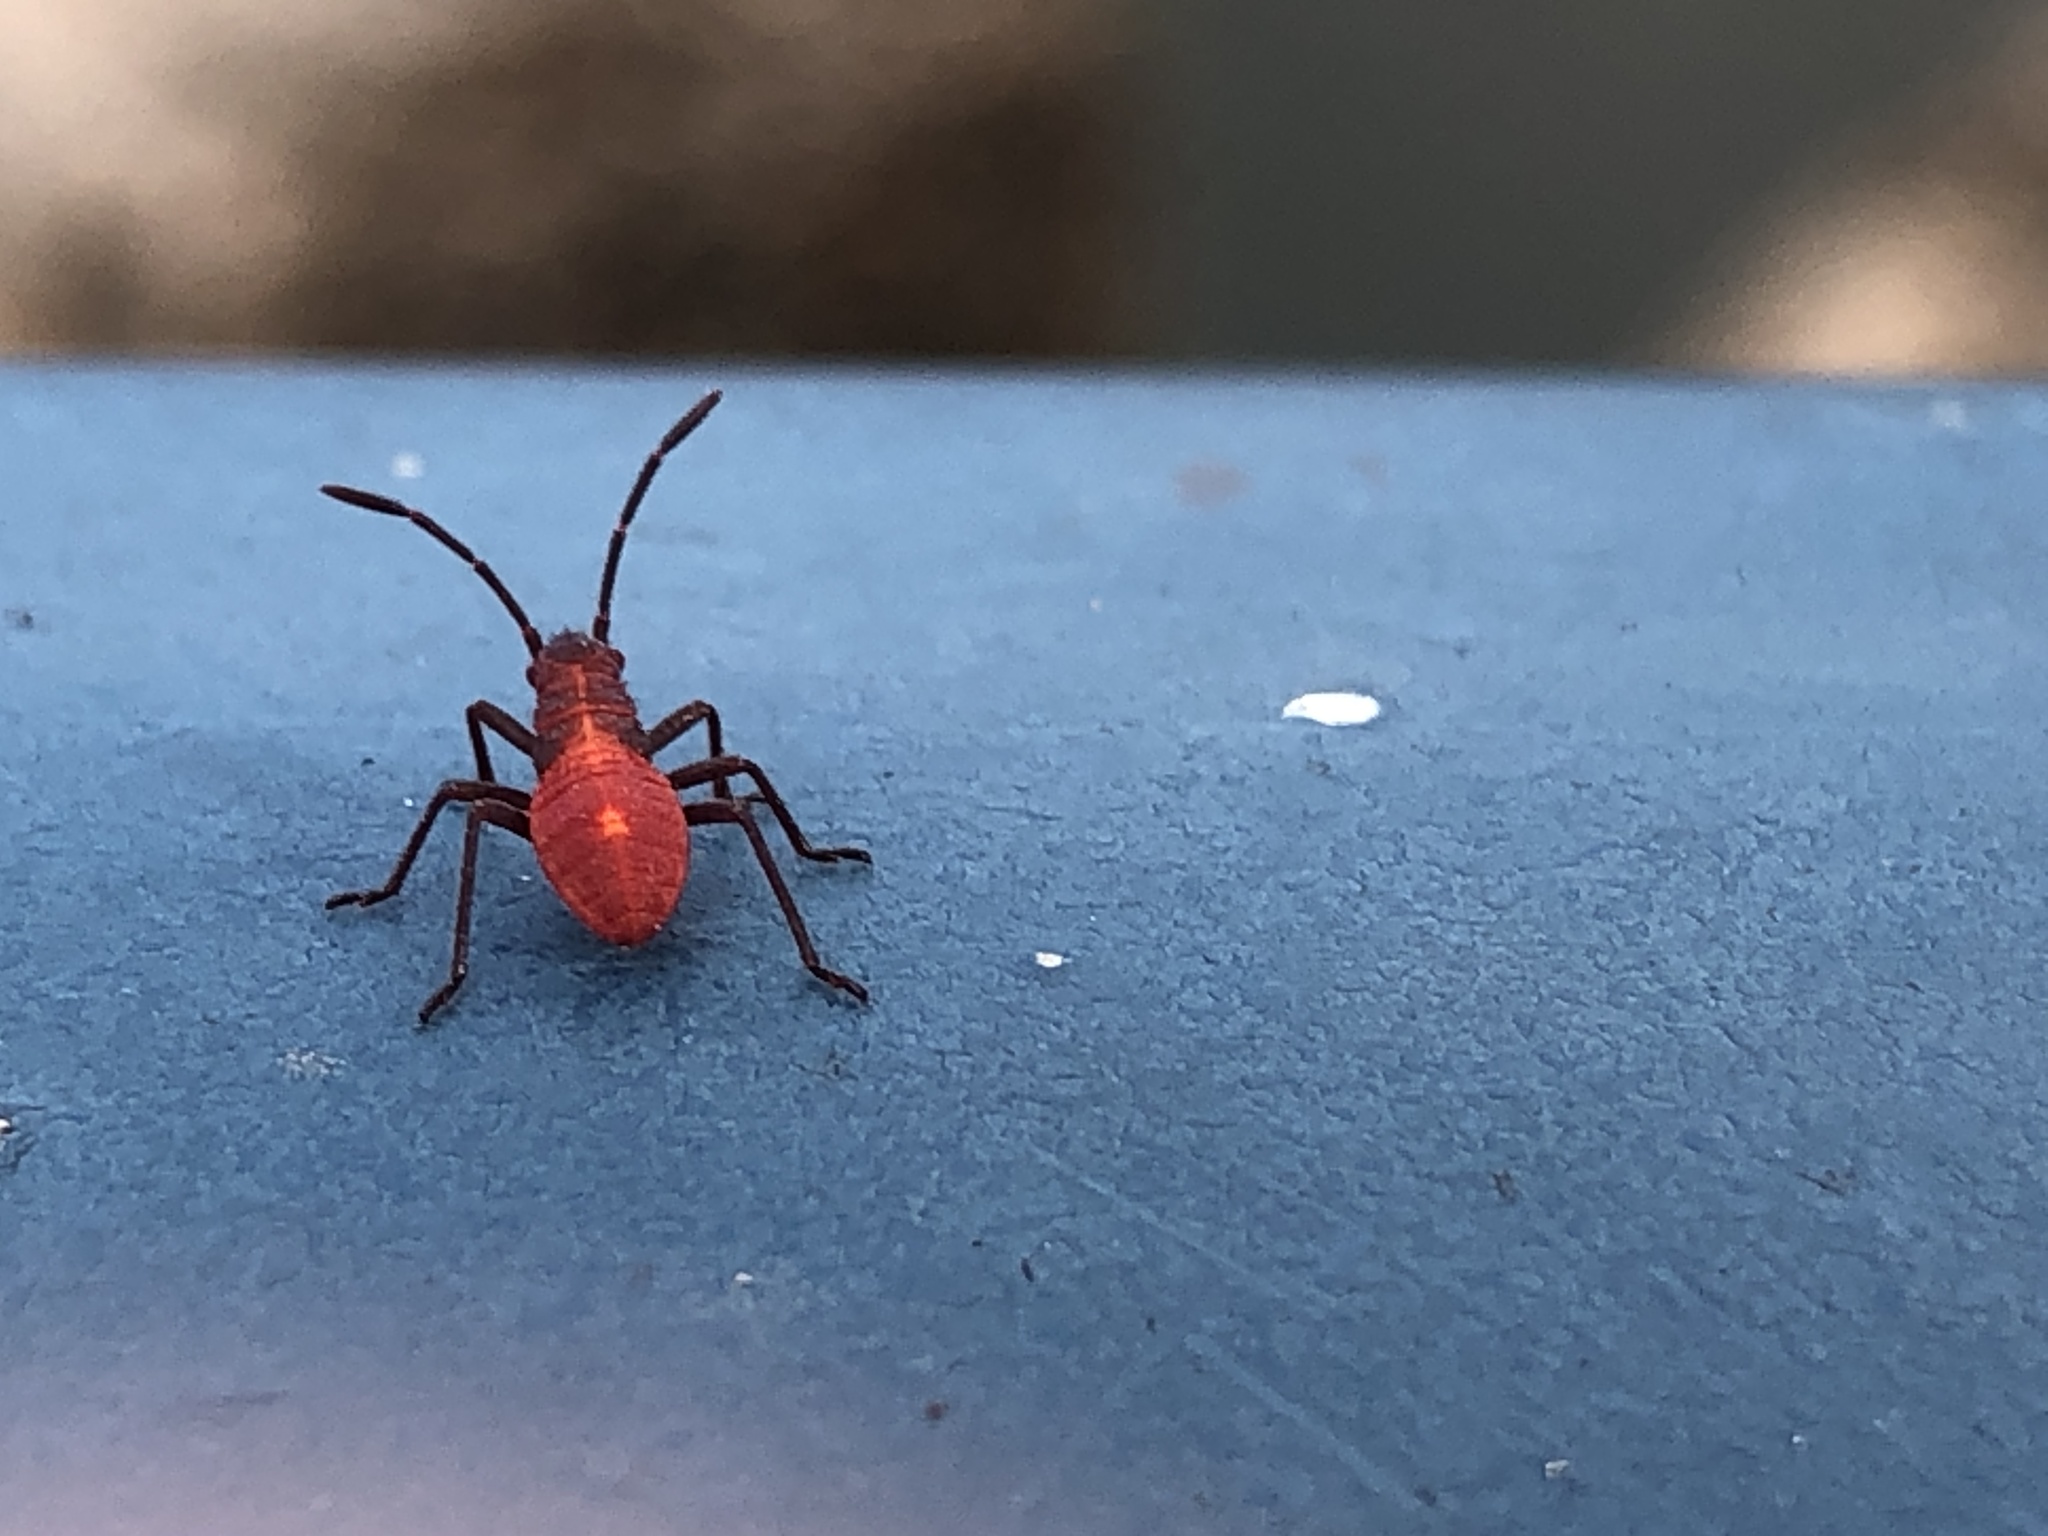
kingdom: Animalia
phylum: Arthropoda
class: Insecta
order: Hemiptera
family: Rhopalidae
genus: Boisea
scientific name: Boisea trivittata
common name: Boxelder bug
